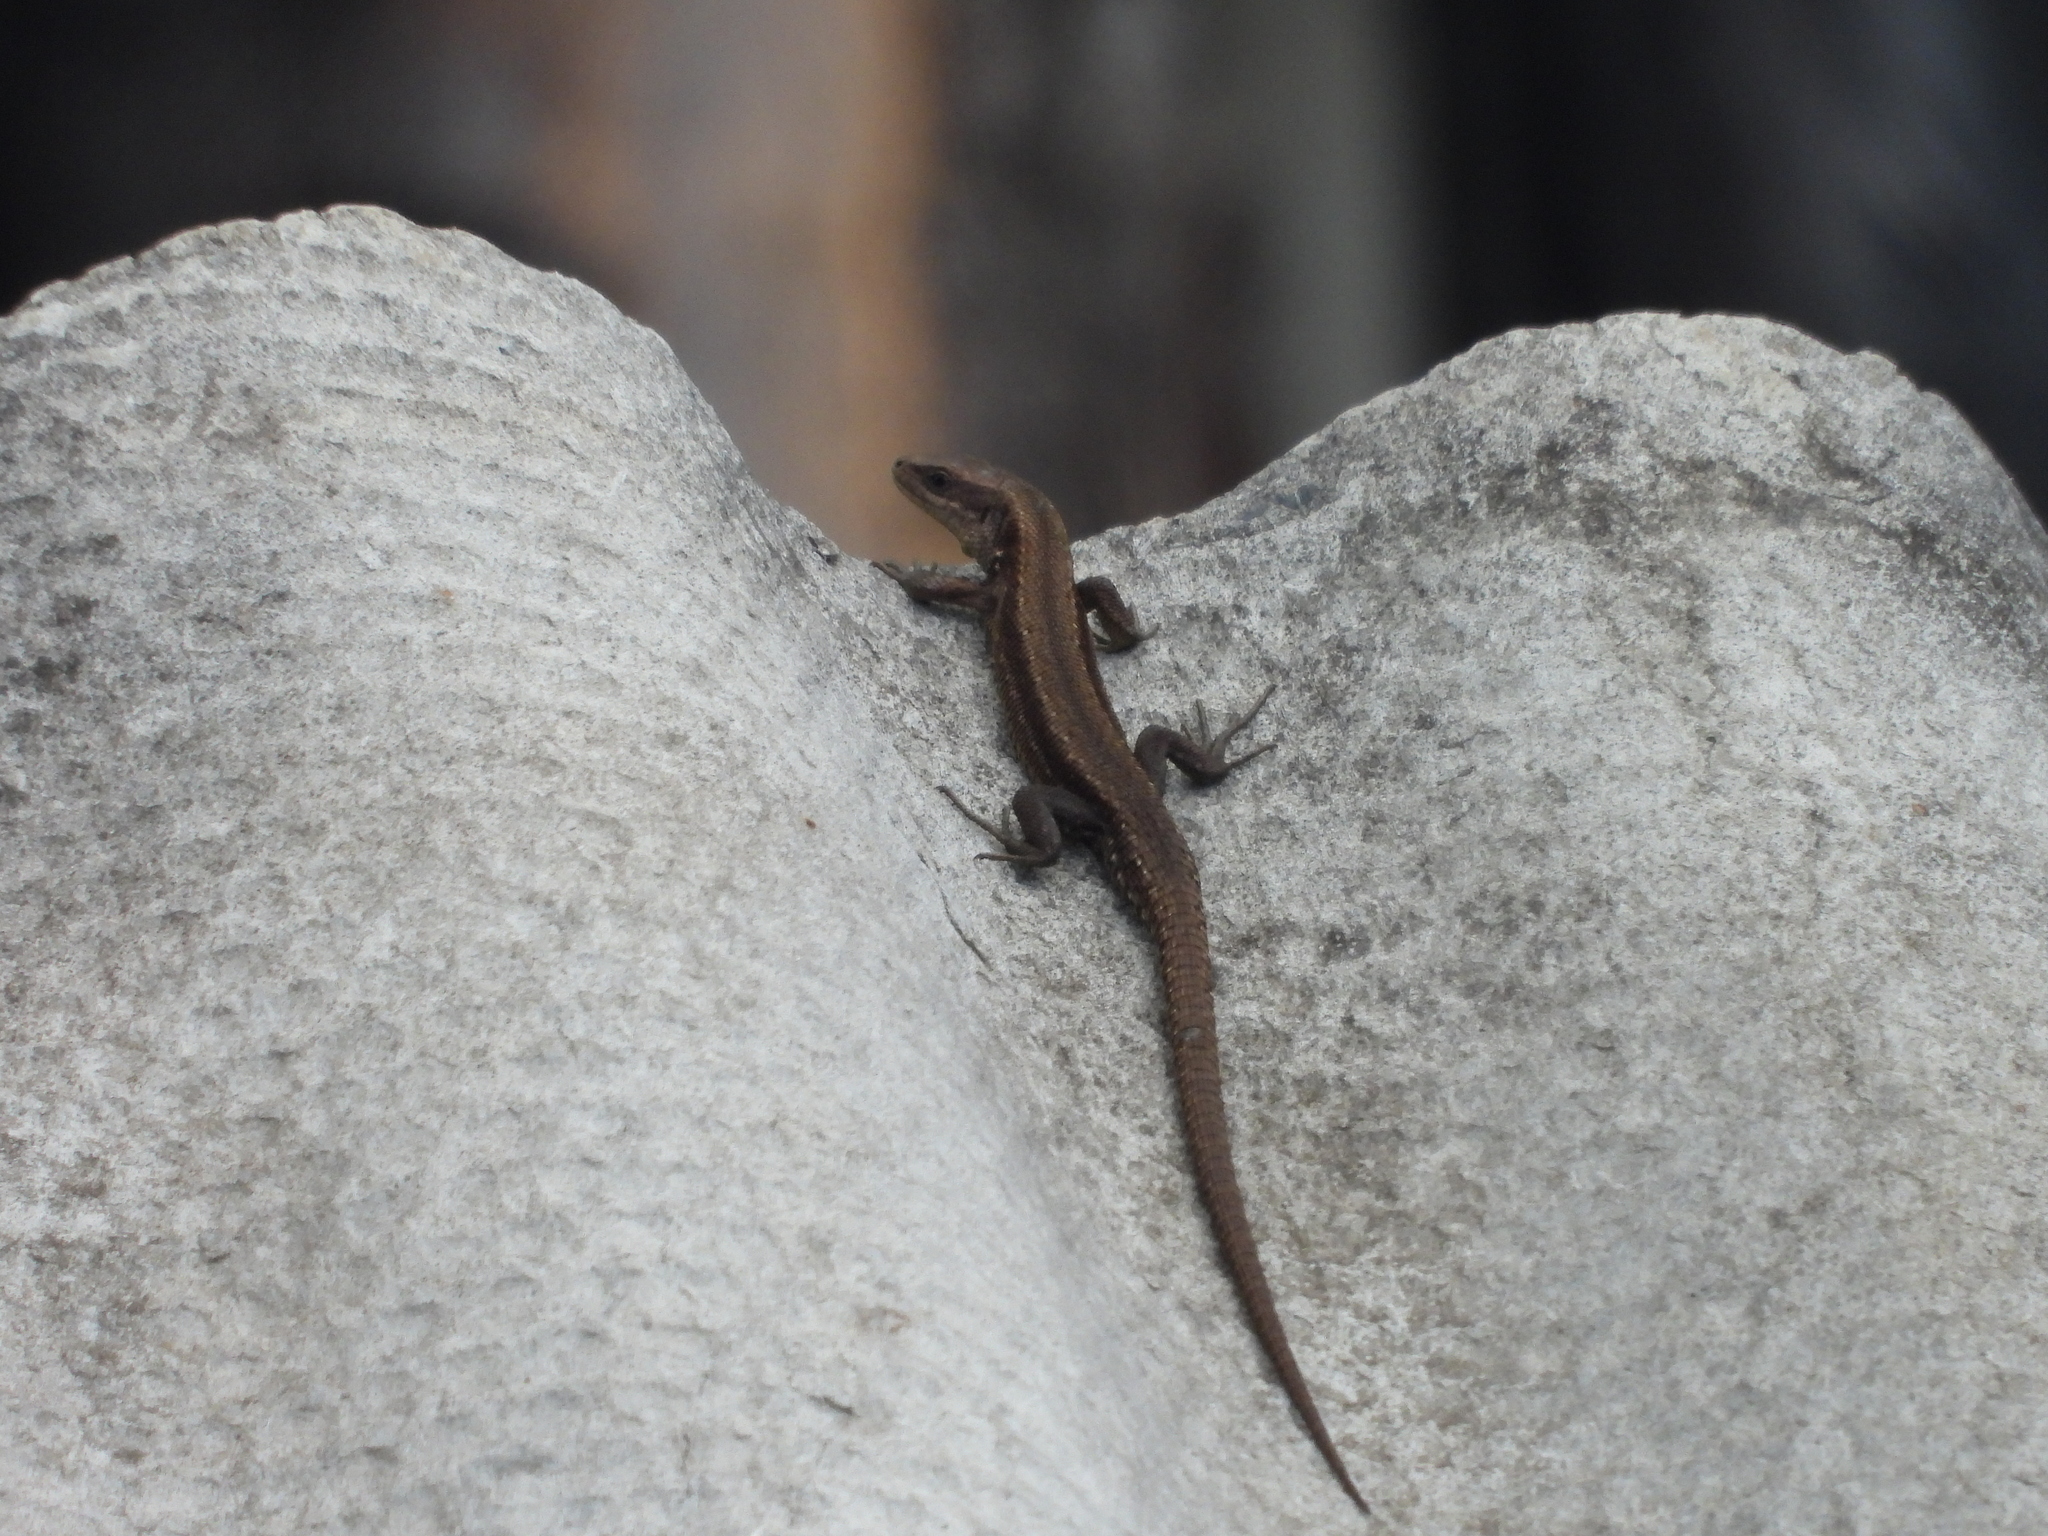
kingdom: Animalia
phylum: Chordata
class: Squamata
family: Lacertidae
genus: Zootoca
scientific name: Zootoca vivipara
